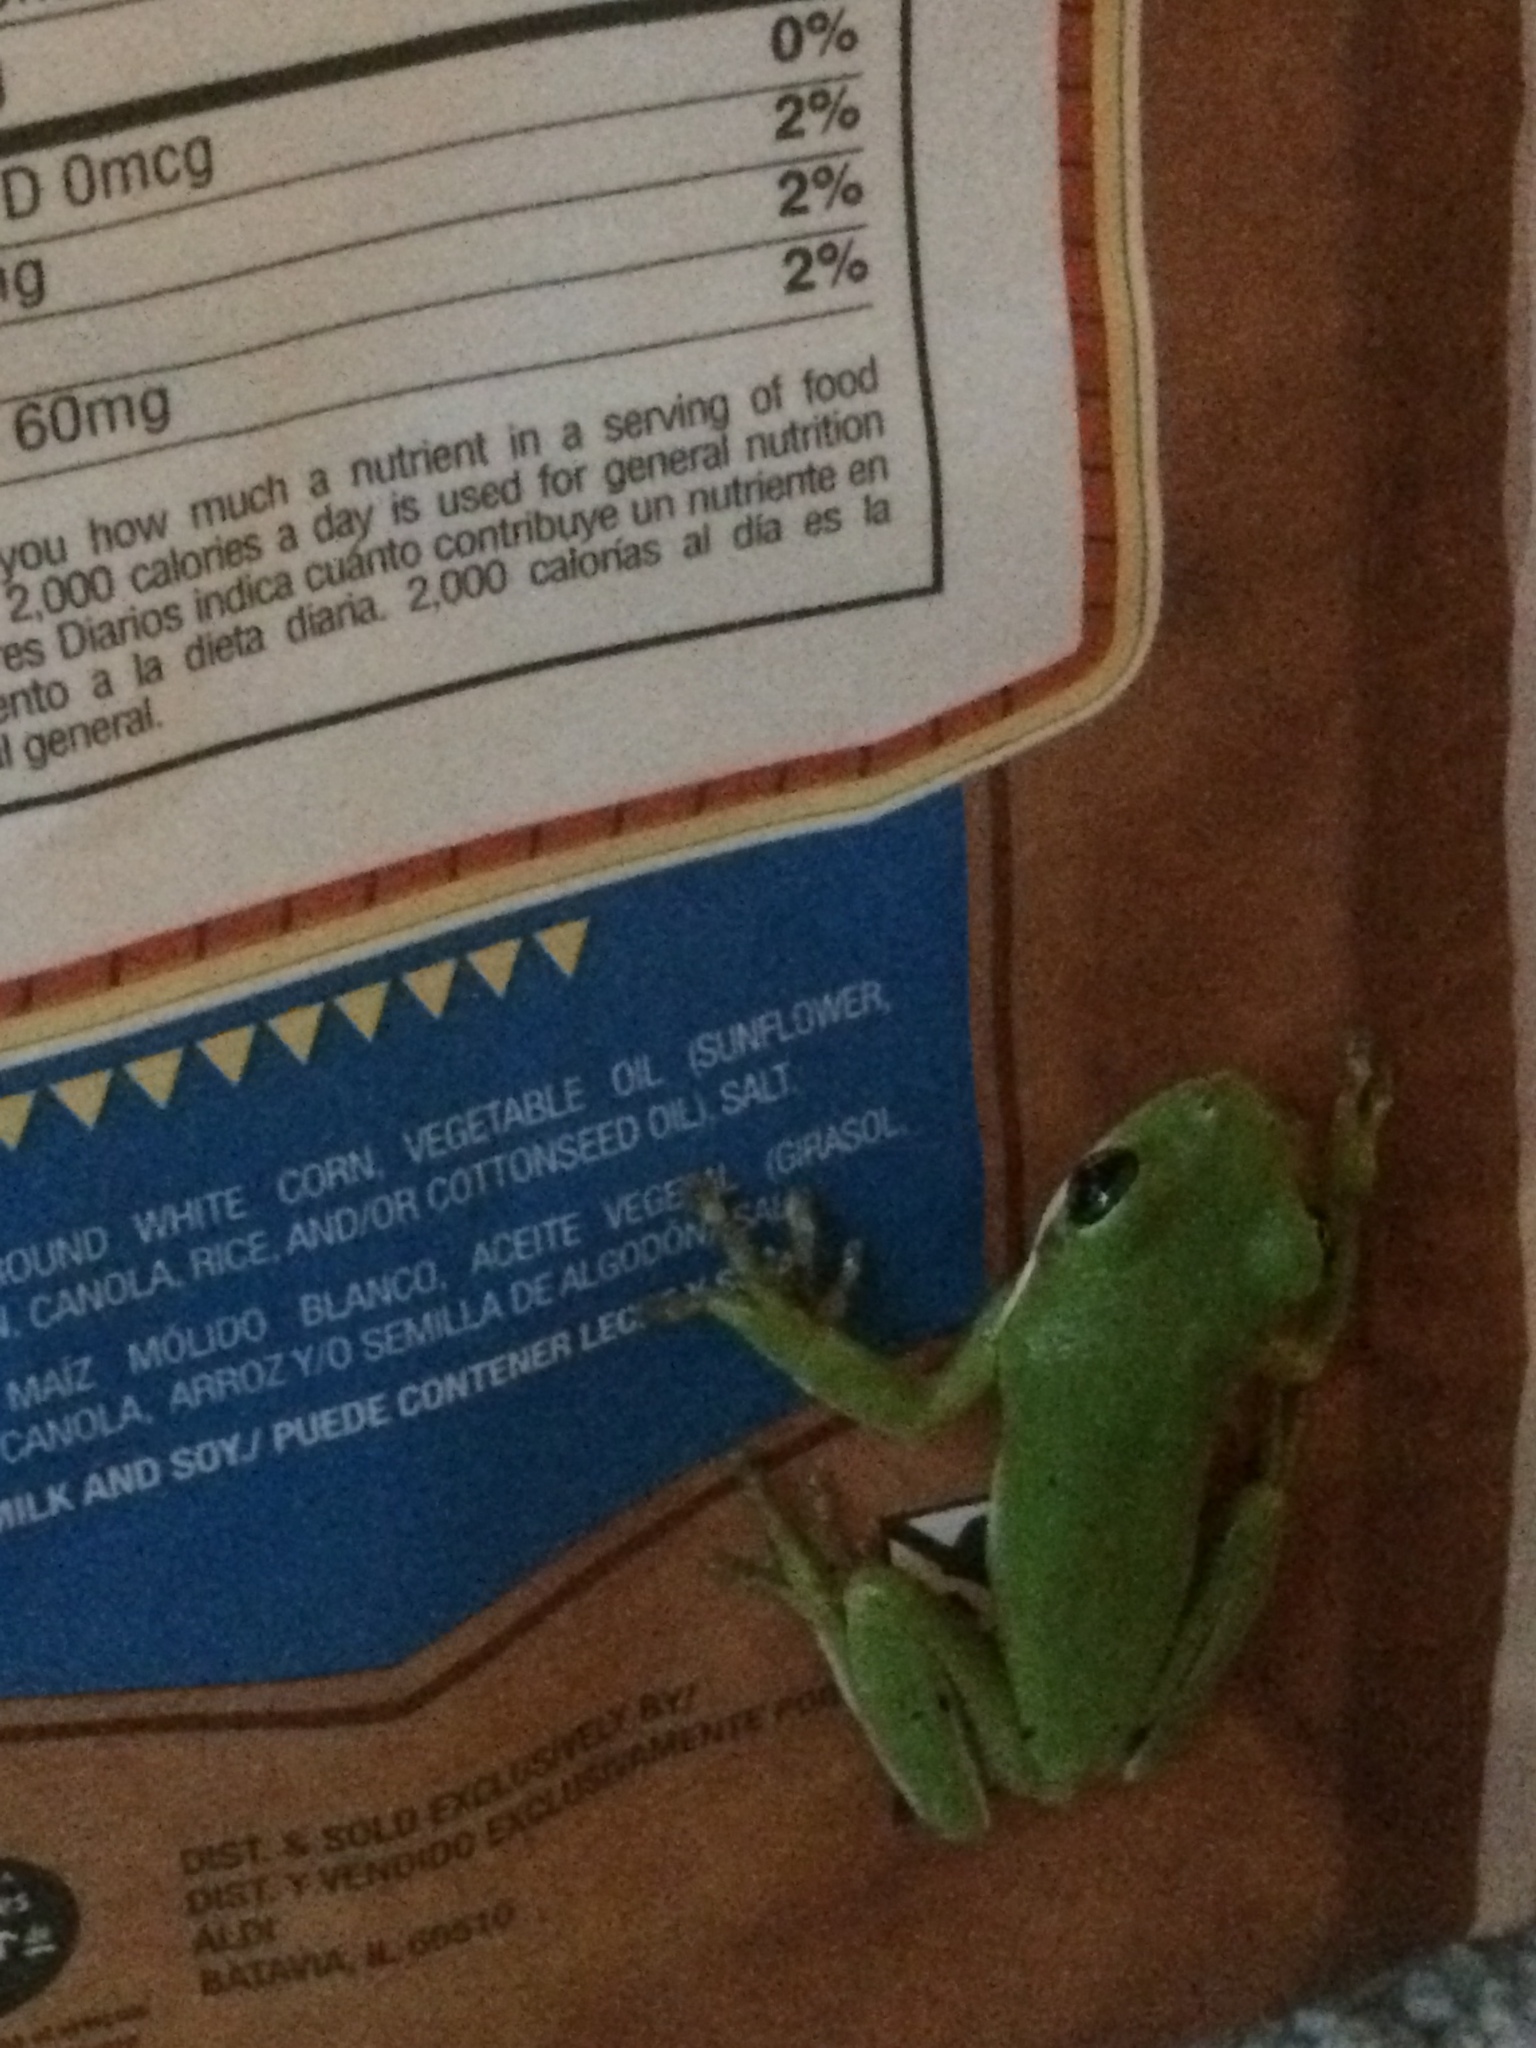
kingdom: Animalia
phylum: Chordata
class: Amphibia
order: Anura
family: Hylidae
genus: Dryophytes
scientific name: Dryophytes cinereus
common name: Green treefrog
